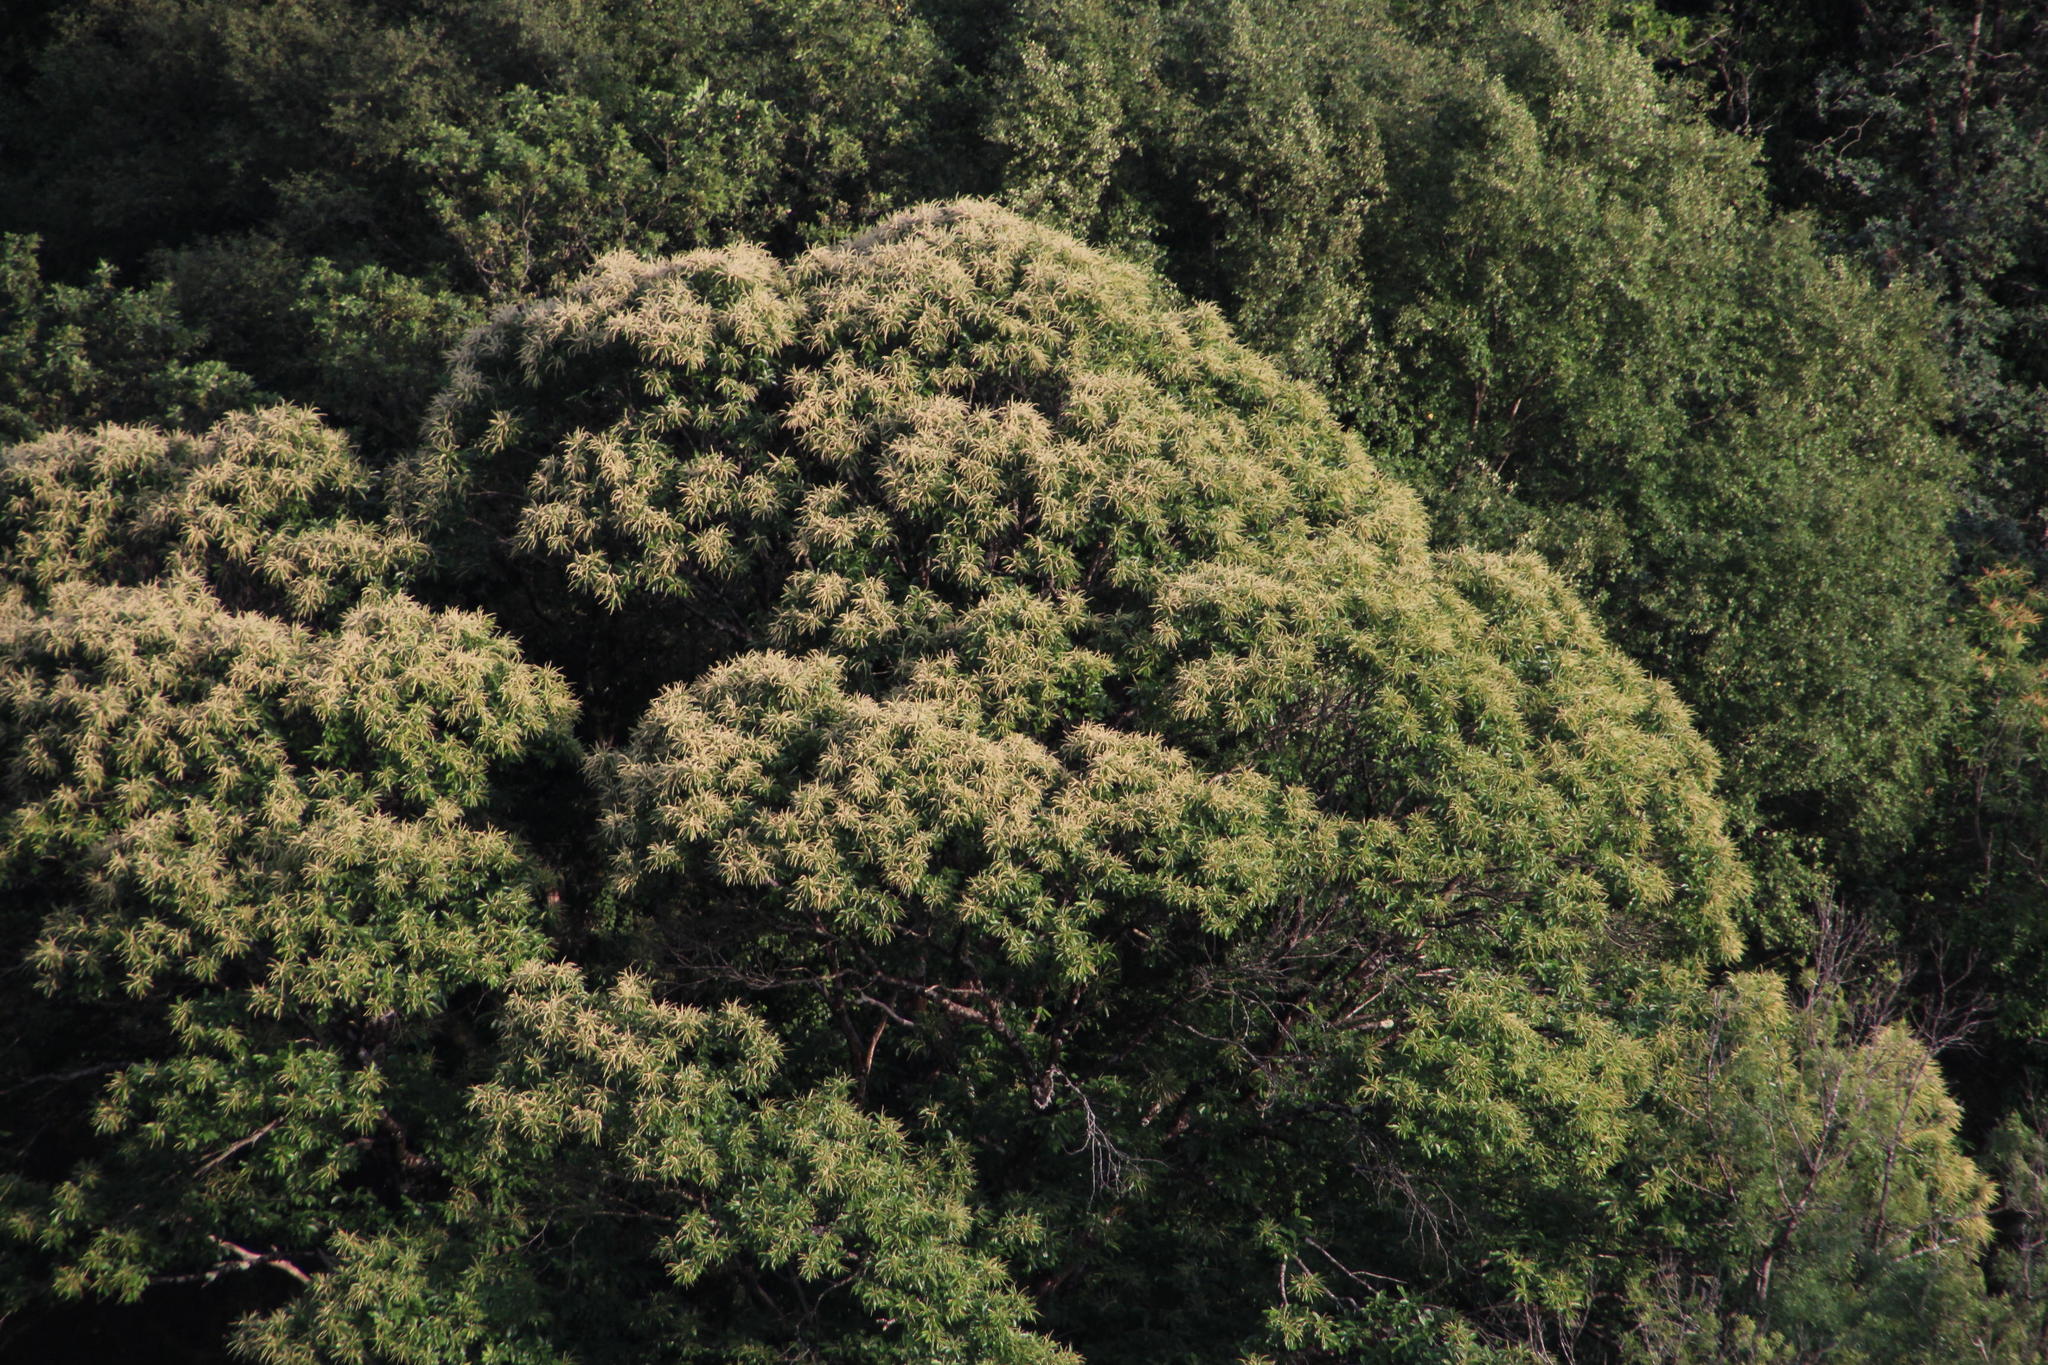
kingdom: Plantae
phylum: Tracheophyta
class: Magnoliopsida
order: Fagales
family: Fagaceae
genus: Castanea
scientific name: Castanea sativa
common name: Sweet chestnut
